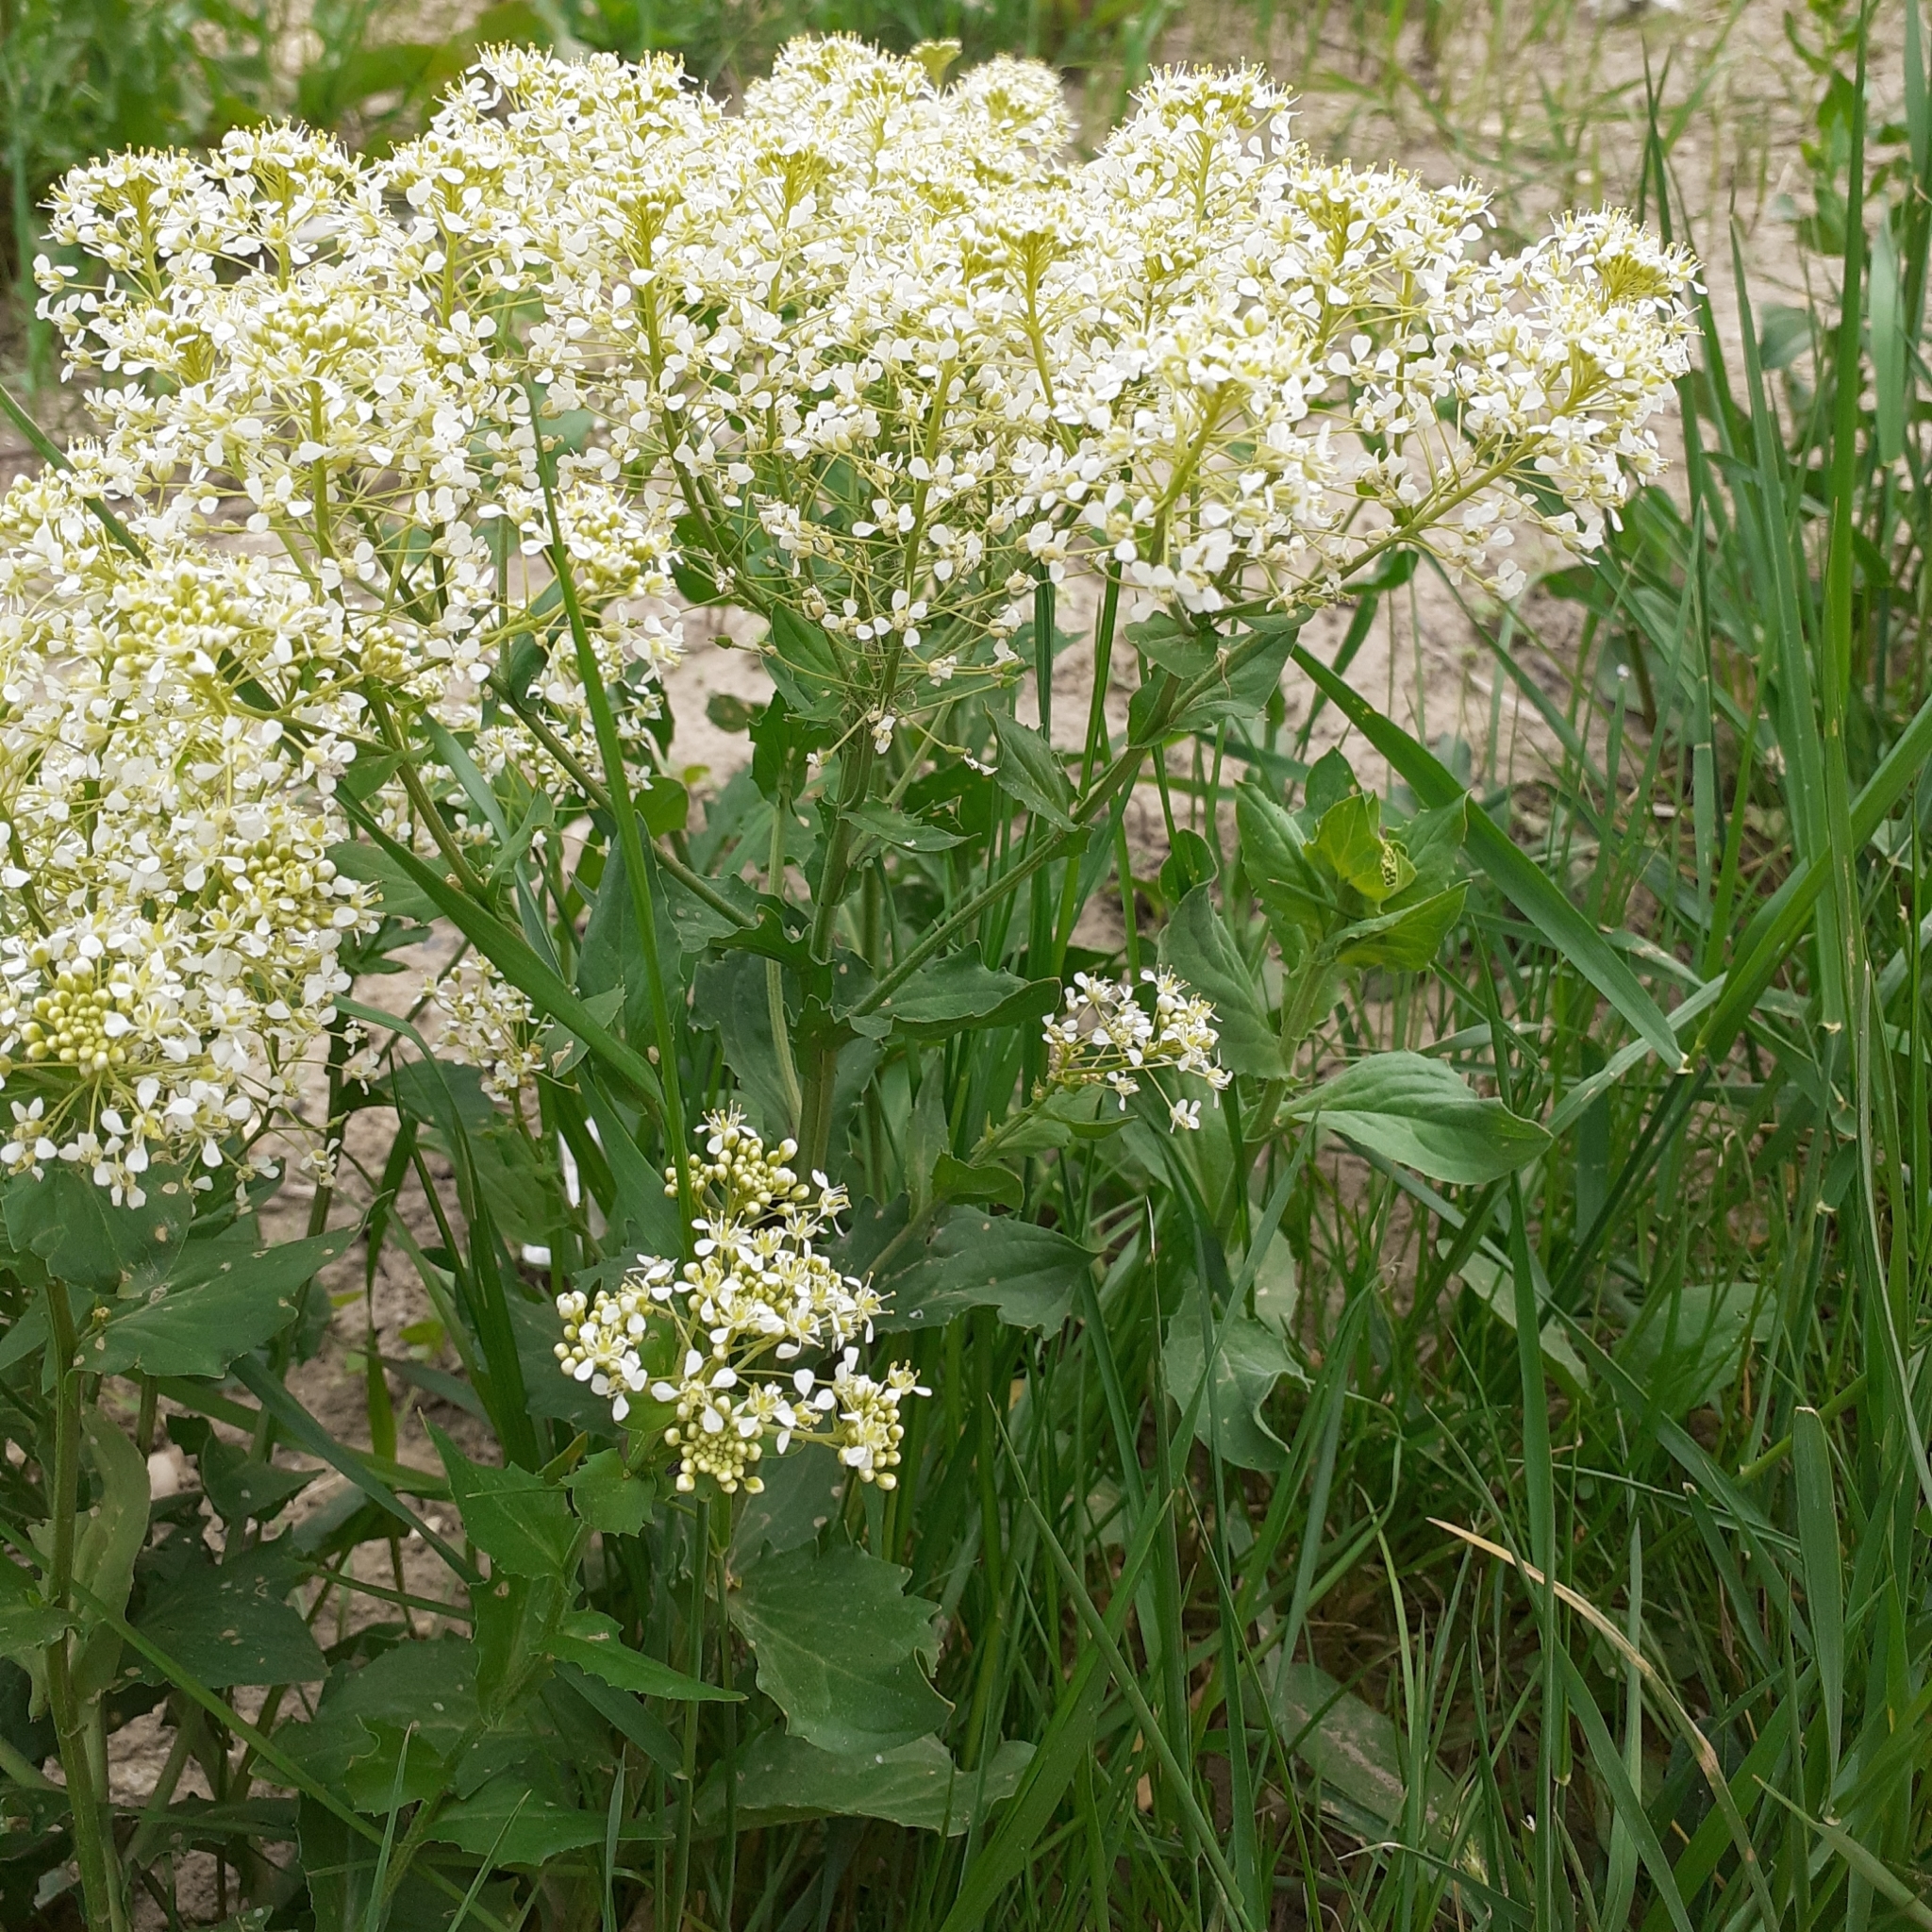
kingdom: Plantae
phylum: Tracheophyta
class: Magnoliopsida
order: Brassicales
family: Brassicaceae
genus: Lepidium
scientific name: Lepidium draba
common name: Hoary cress
